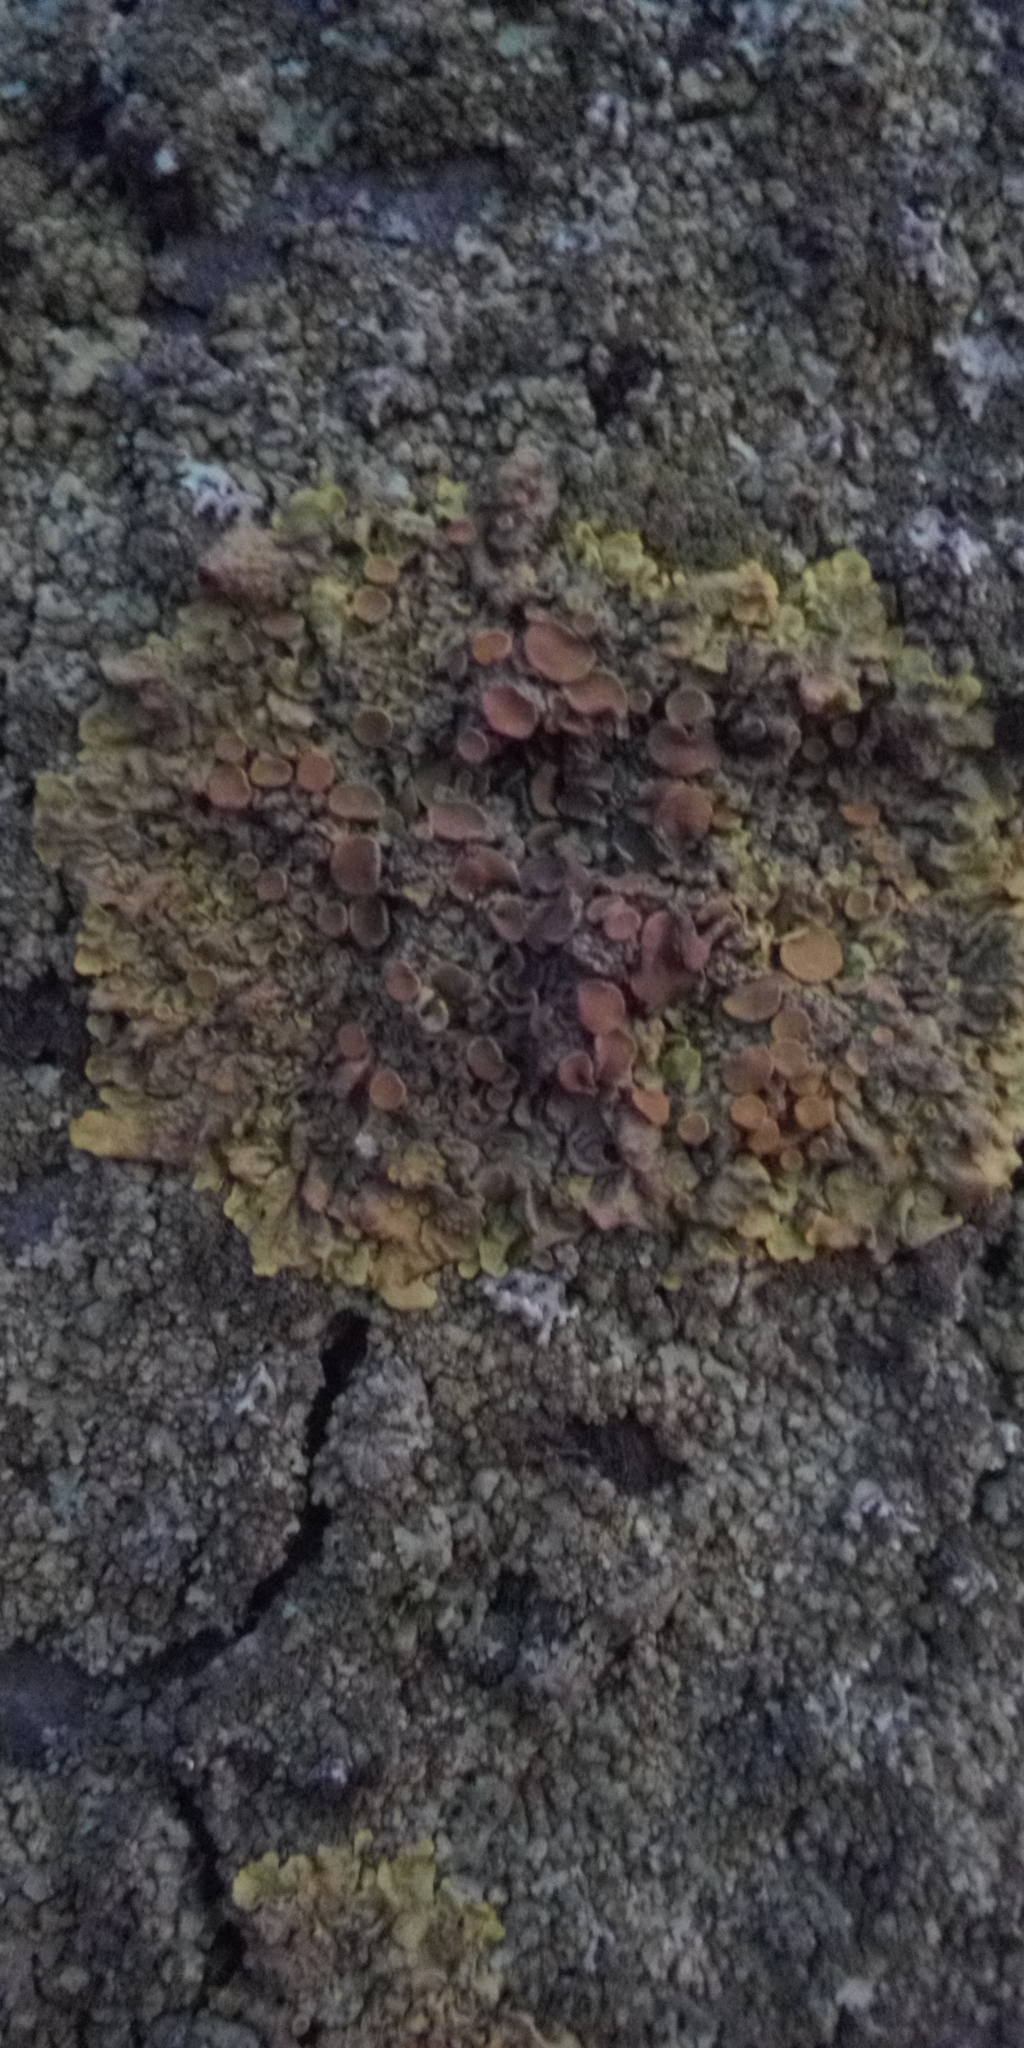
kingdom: Fungi
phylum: Ascomycota
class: Lecanoromycetes
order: Teloschistales
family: Teloschistaceae
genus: Xanthoria
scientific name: Xanthoria parietina
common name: Common orange lichen
